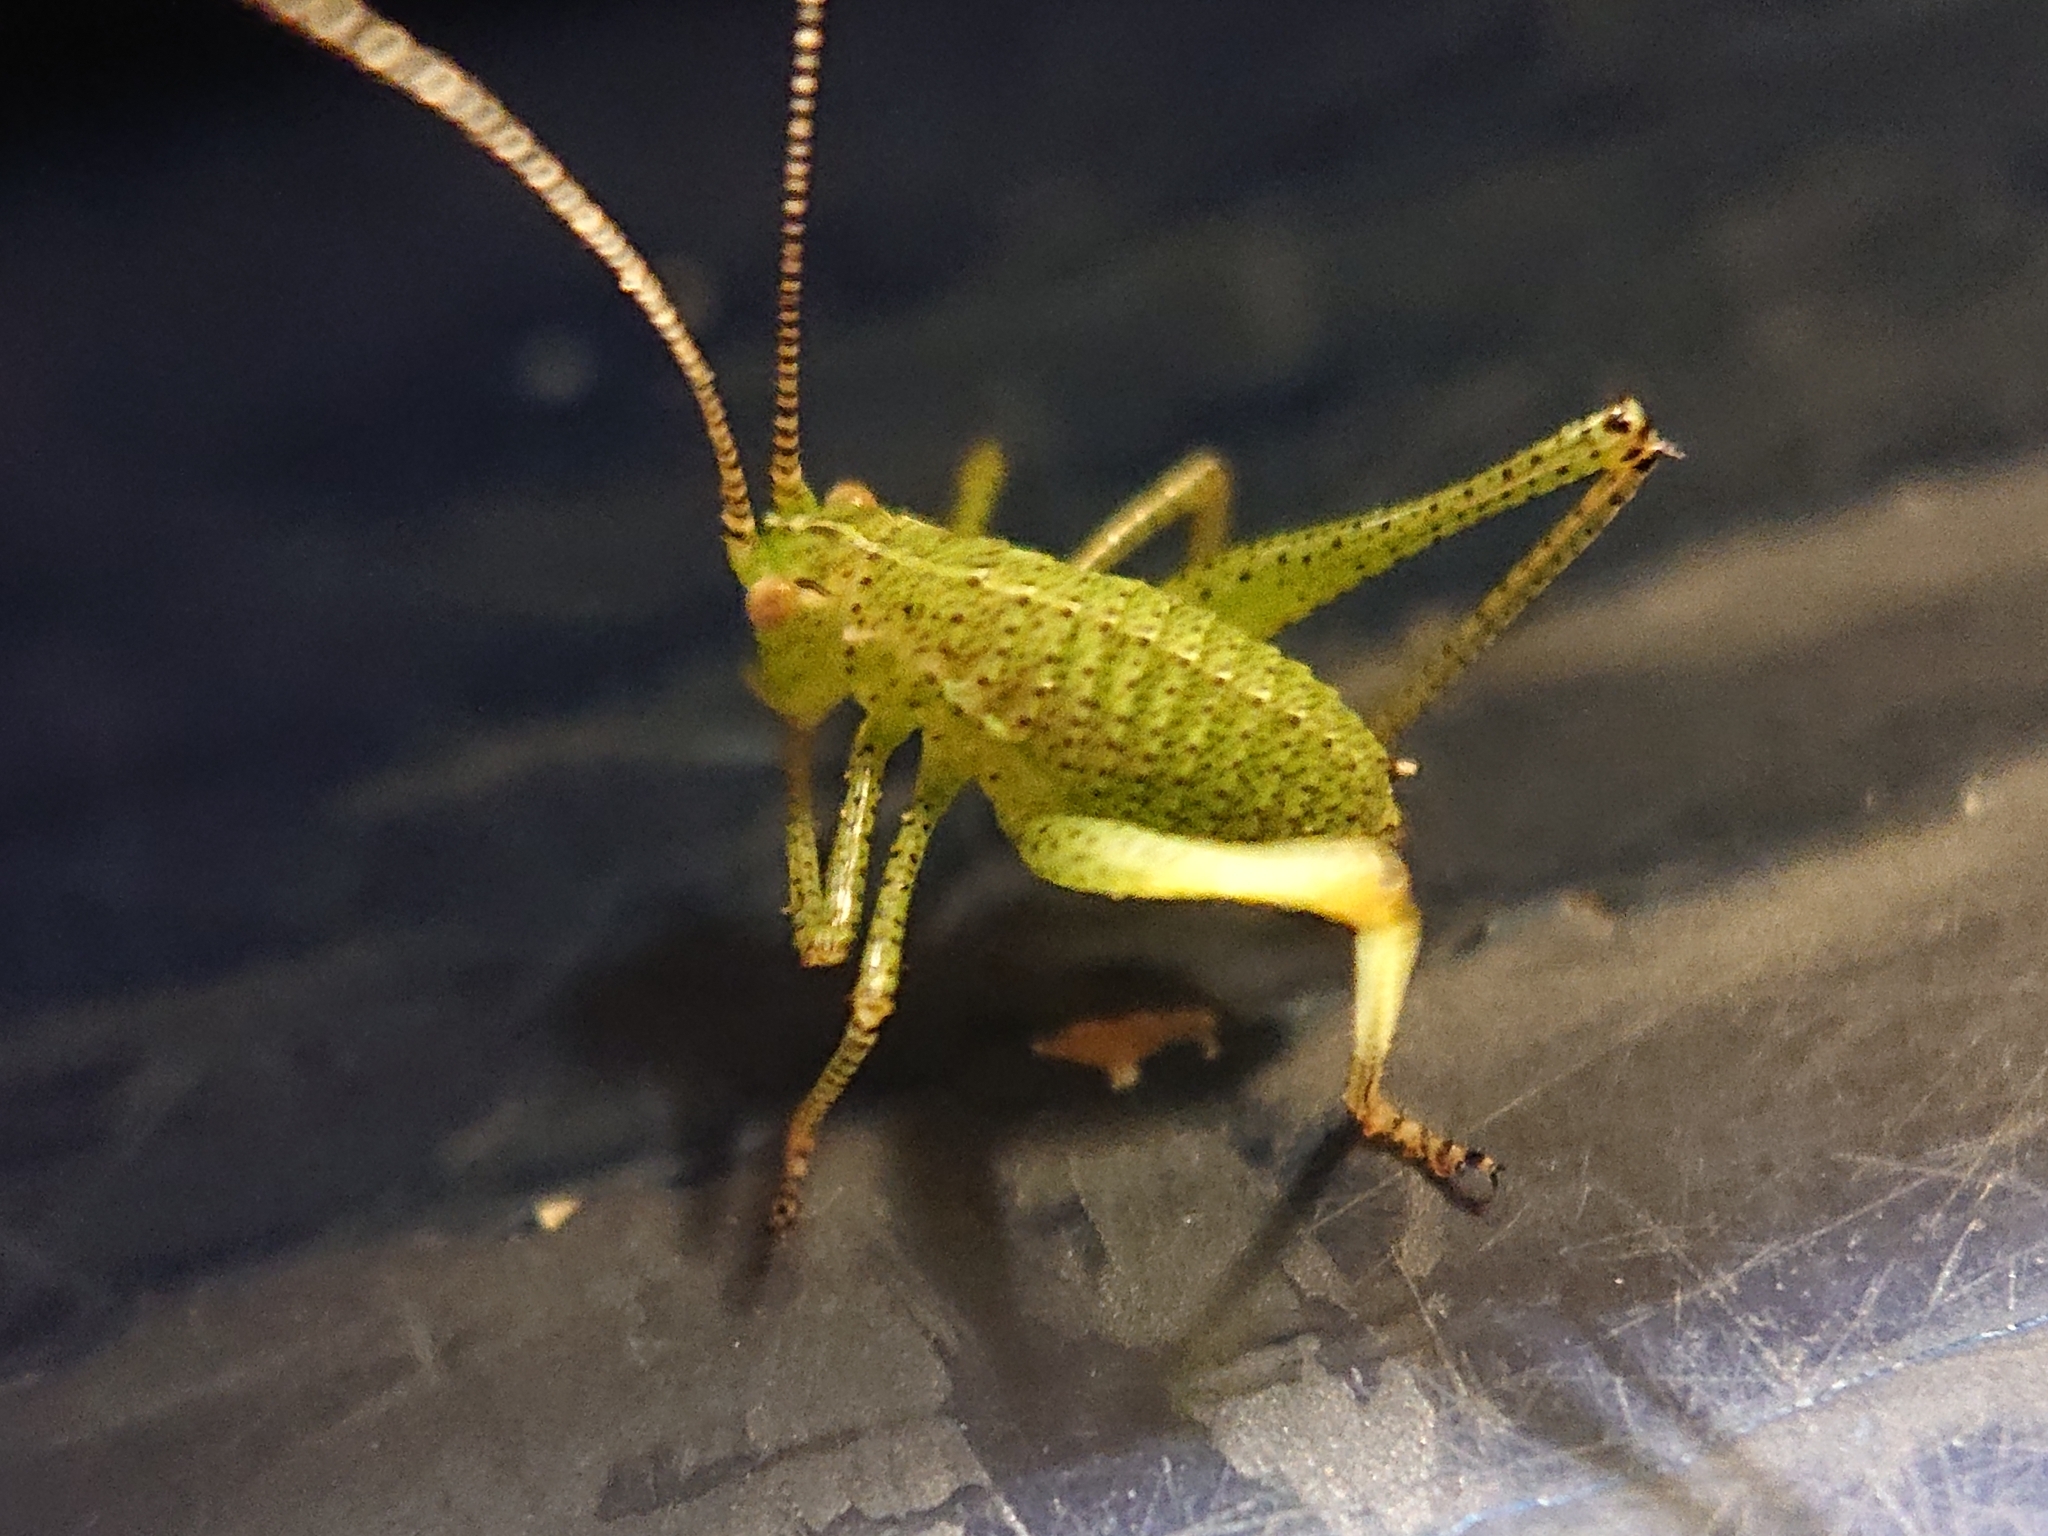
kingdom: Animalia
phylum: Arthropoda
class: Insecta
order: Orthoptera
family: Tettigoniidae
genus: Leptophyes
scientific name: Leptophyes punctatissima
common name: Speckled bush-cricket
